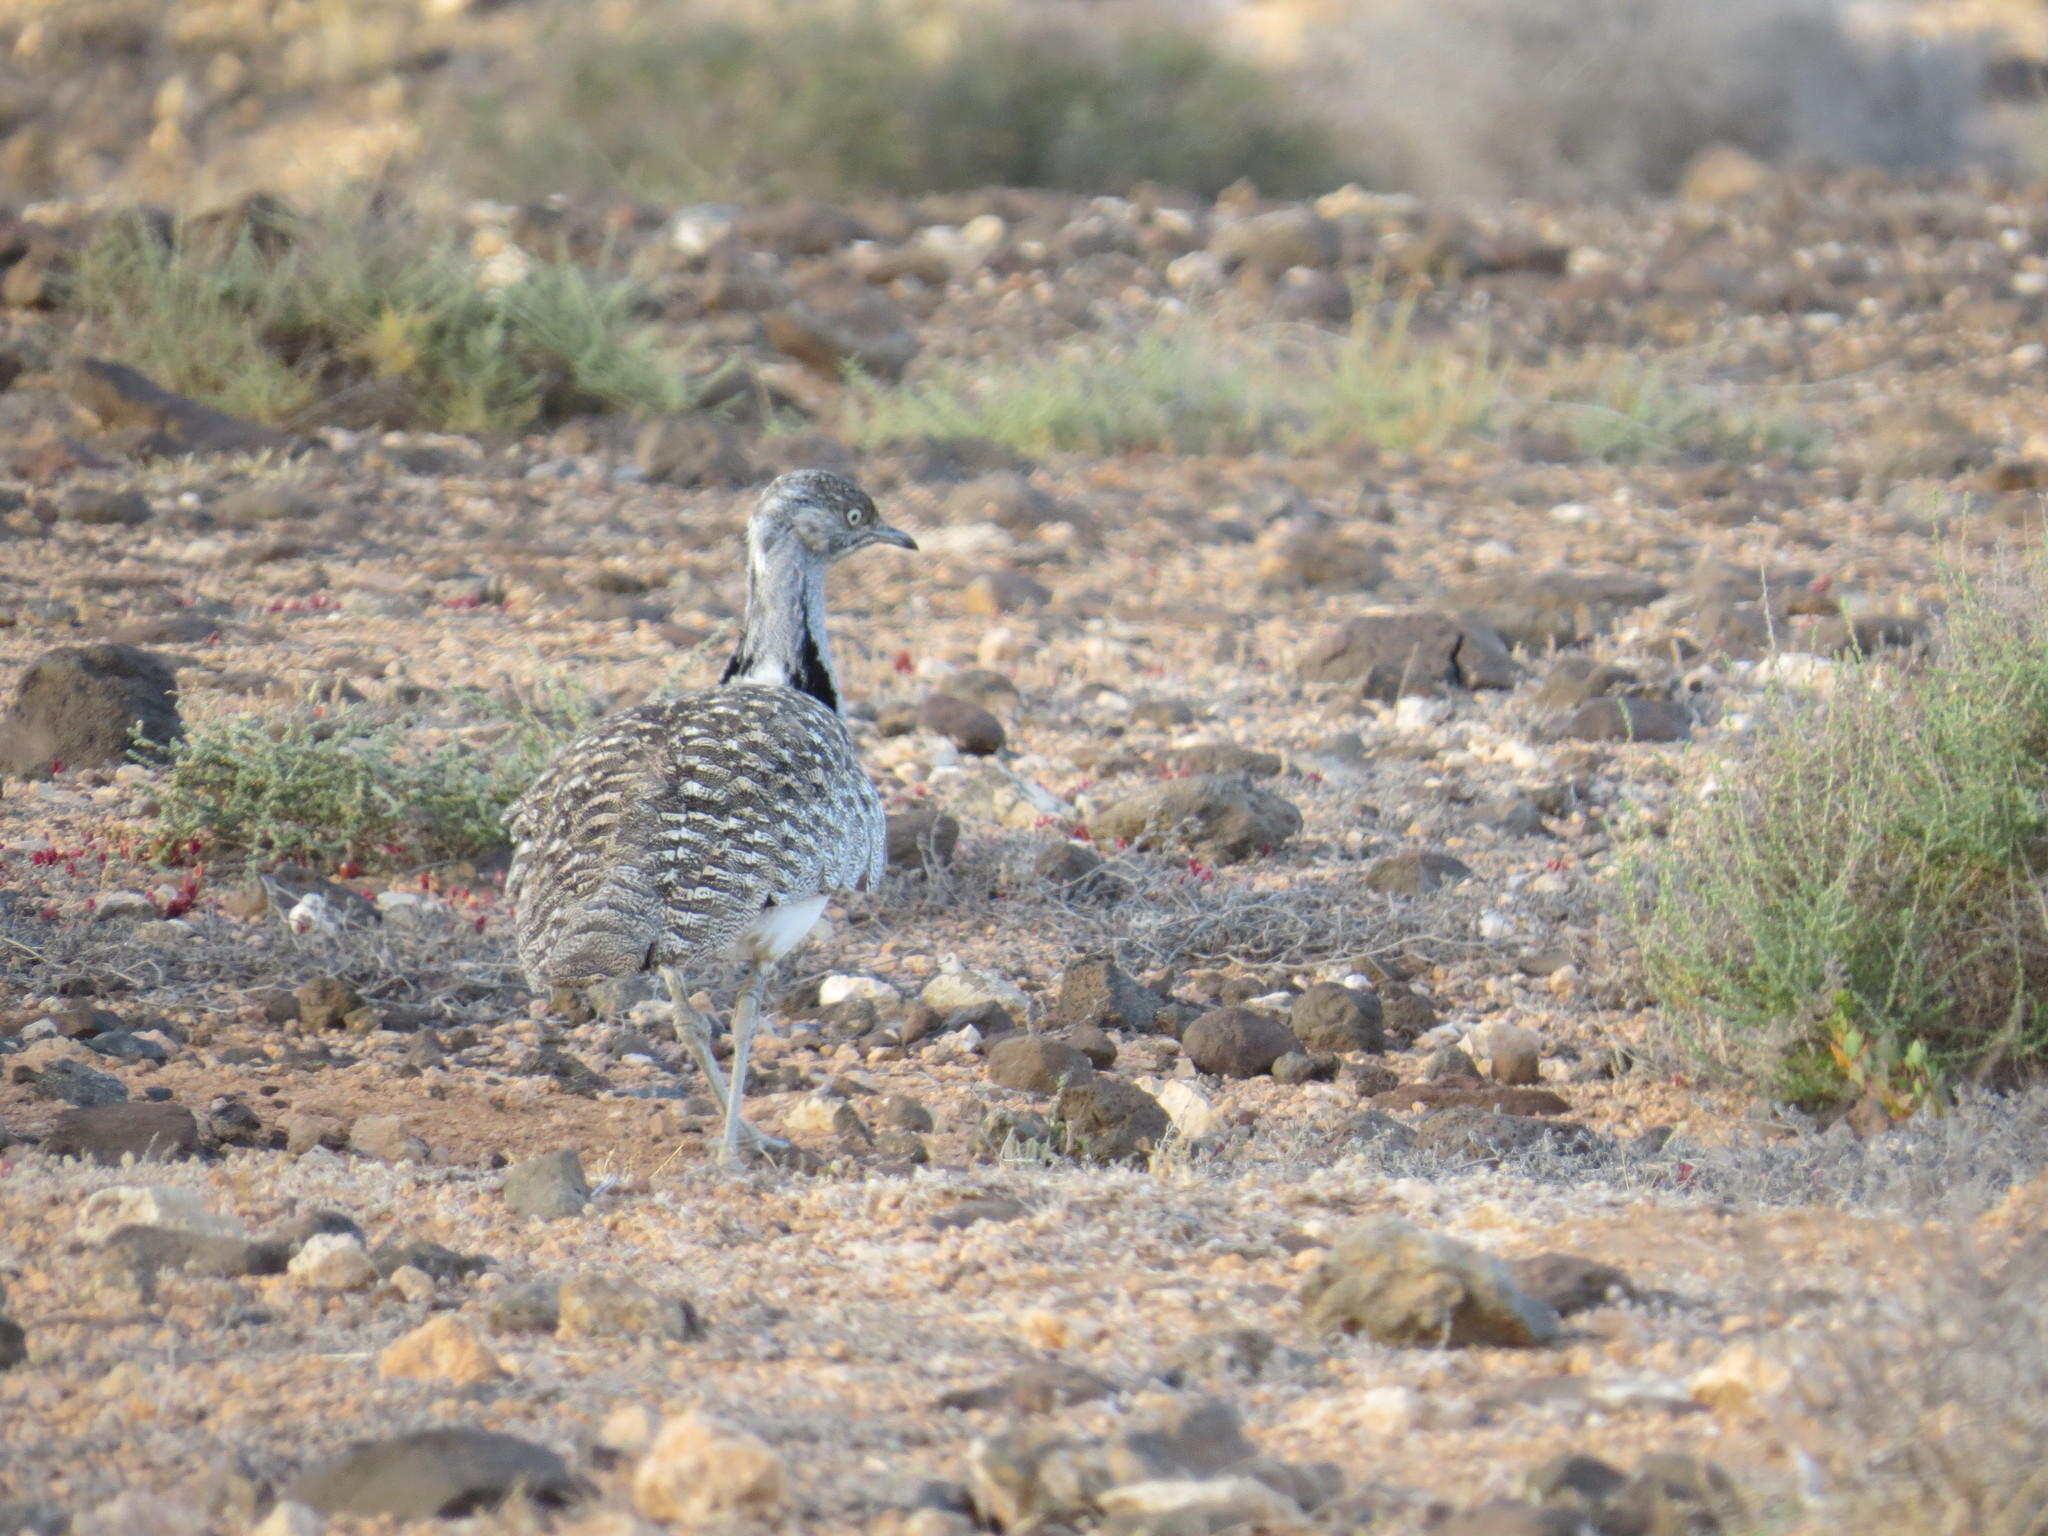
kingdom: Animalia
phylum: Chordata
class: Aves
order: Otidiformes
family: Otididae
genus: Chlamydotis
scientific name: Chlamydotis undulata
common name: Houbara bustard
